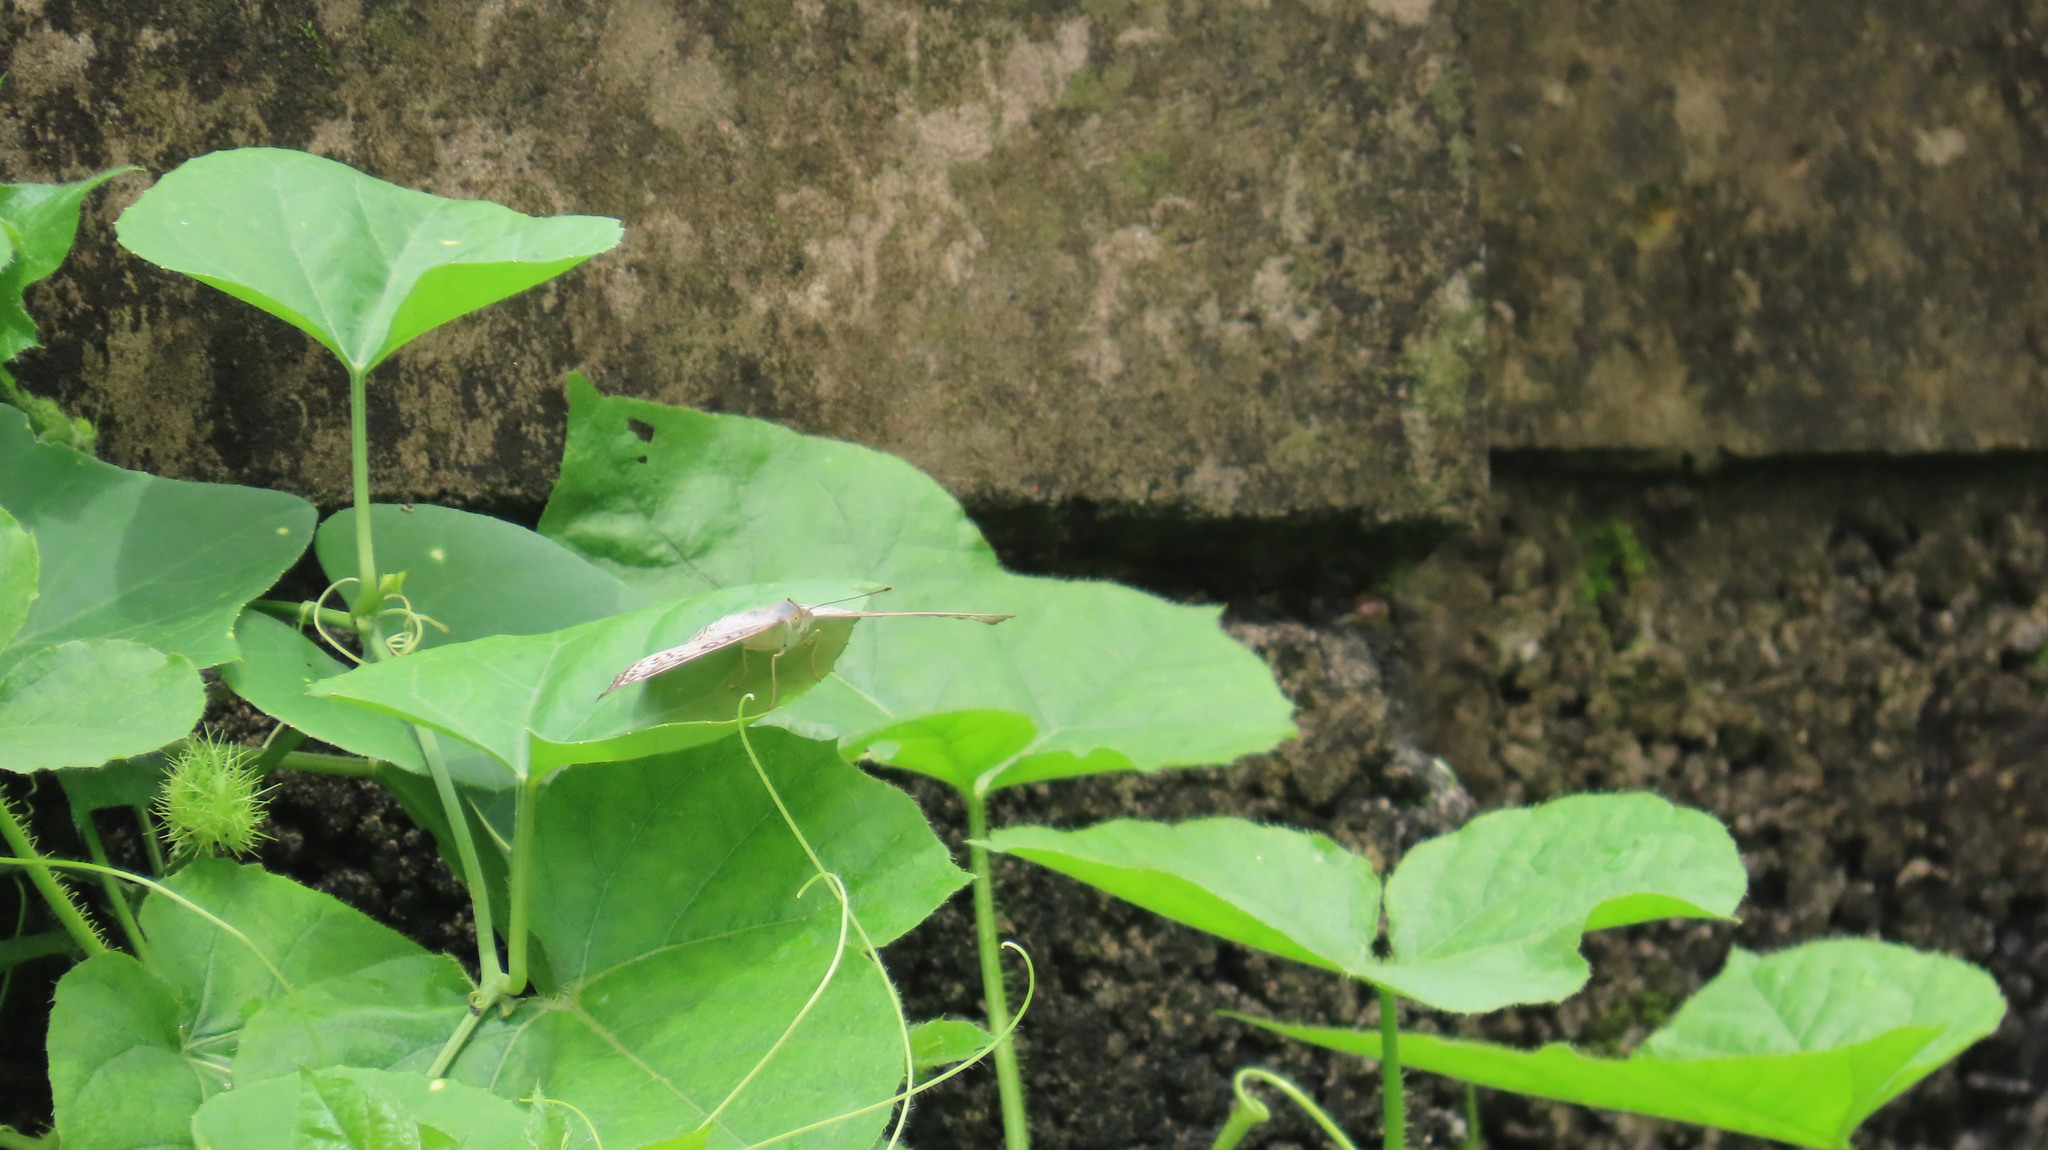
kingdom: Animalia
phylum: Arthropoda
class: Insecta
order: Lepidoptera
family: Nymphalidae
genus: Junonia
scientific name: Junonia atlites
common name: Grey pansy
